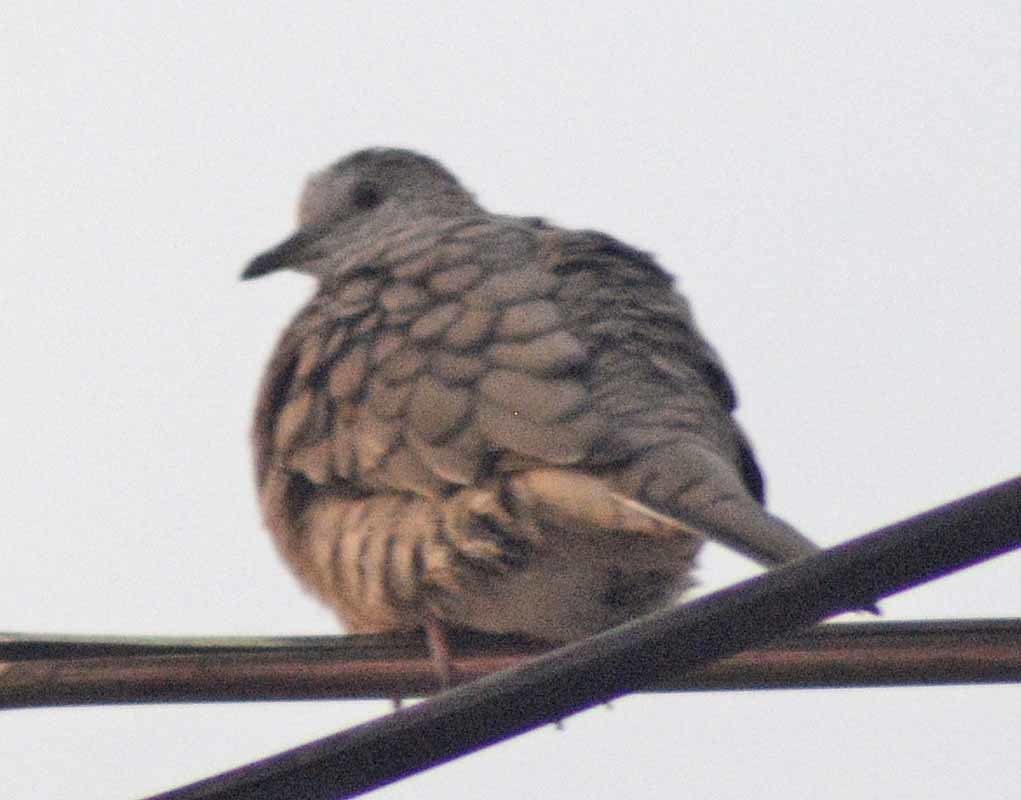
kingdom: Animalia
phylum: Chordata
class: Aves
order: Columbiformes
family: Columbidae
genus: Columbina
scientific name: Columbina inca
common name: Inca dove
